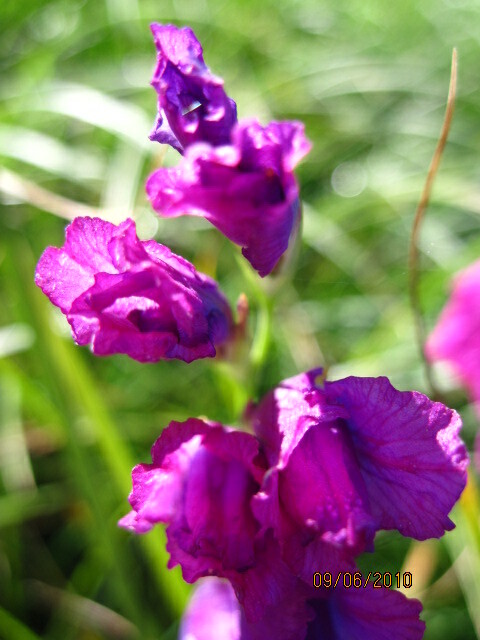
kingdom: Plantae
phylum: Tracheophyta
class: Liliopsida
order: Asparagales
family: Iridaceae
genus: Gladiolus
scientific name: Gladiolus tenuis
